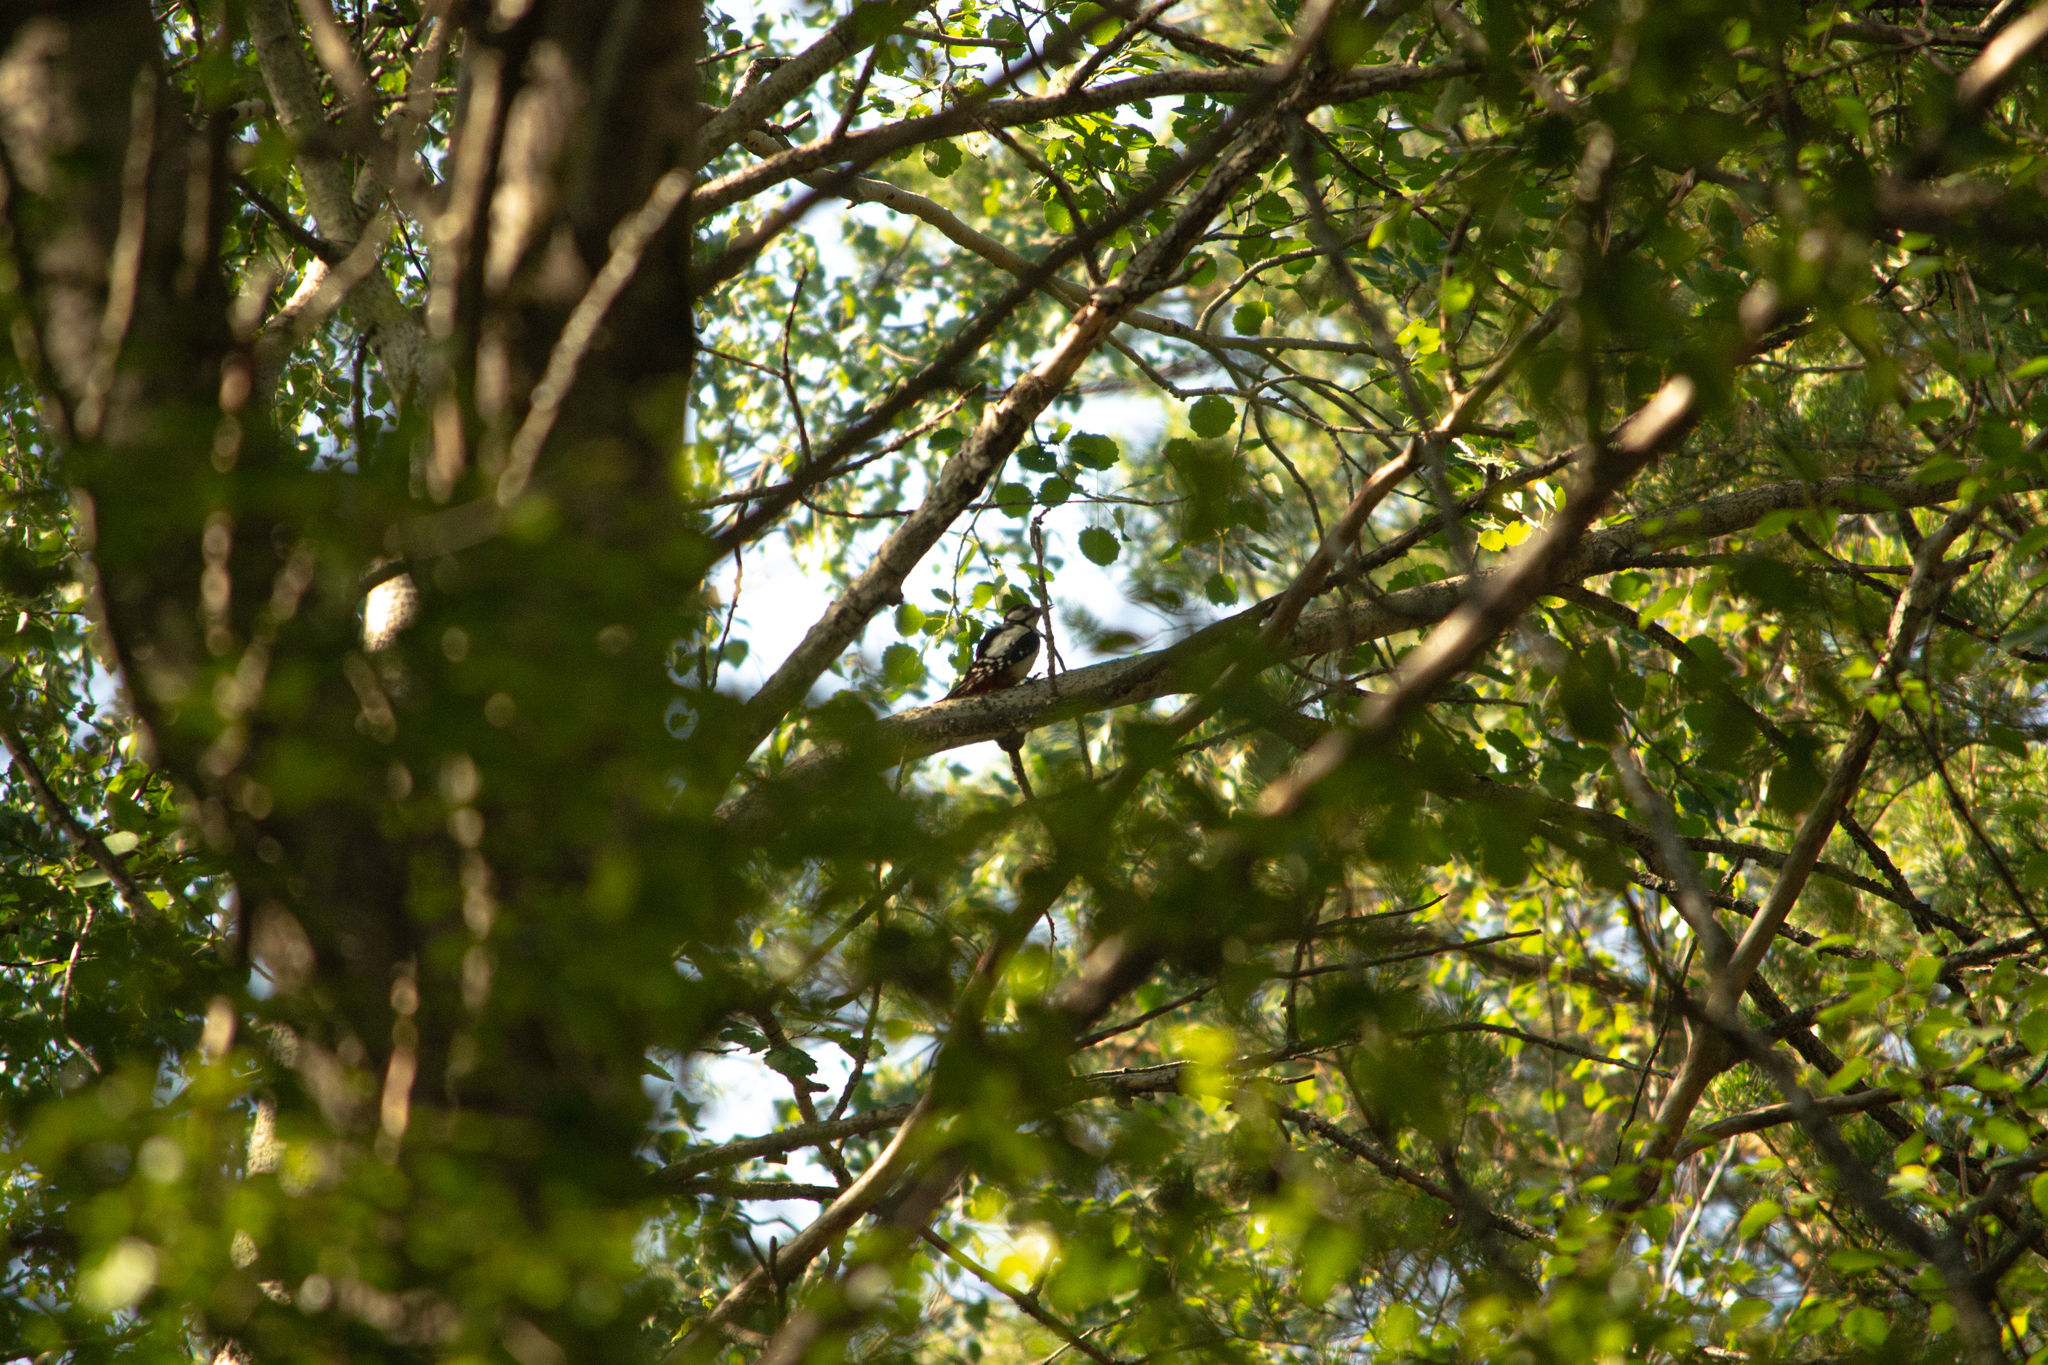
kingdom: Animalia
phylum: Chordata
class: Aves
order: Piciformes
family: Picidae
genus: Dendrocopos
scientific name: Dendrocopos major
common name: Great spotted woodpecker
